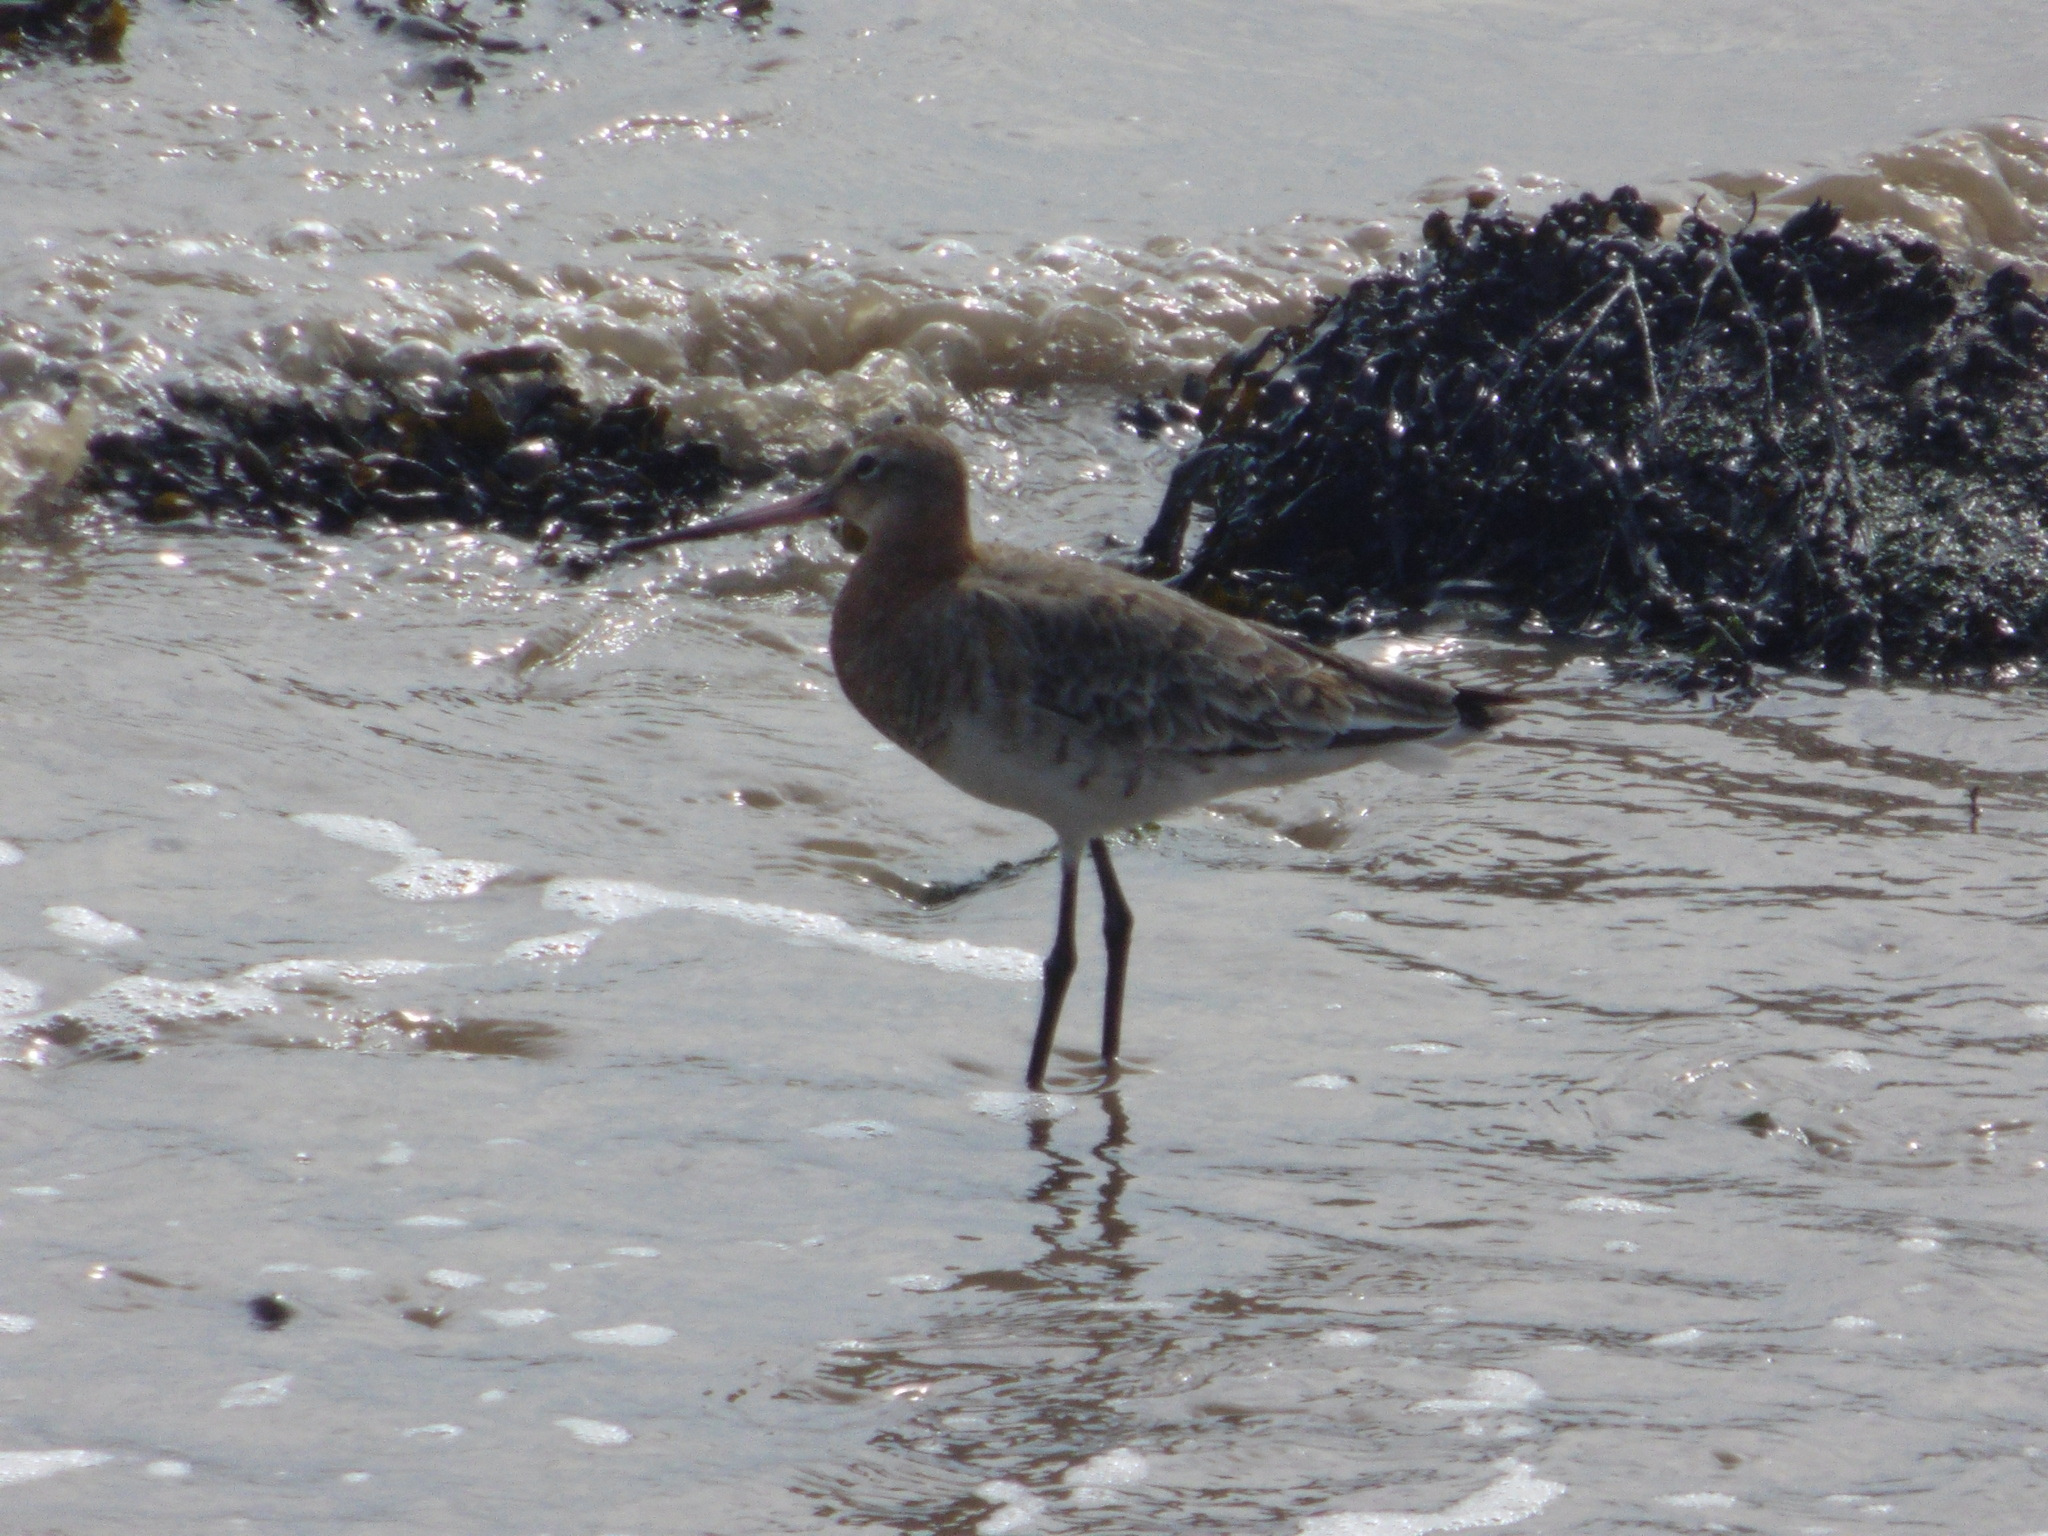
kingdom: Animalia
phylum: Chordata
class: Aves
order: Charadriiformes
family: Scolopacidae
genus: Limosa
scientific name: Limosa limosa
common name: Black-tailed godwit
